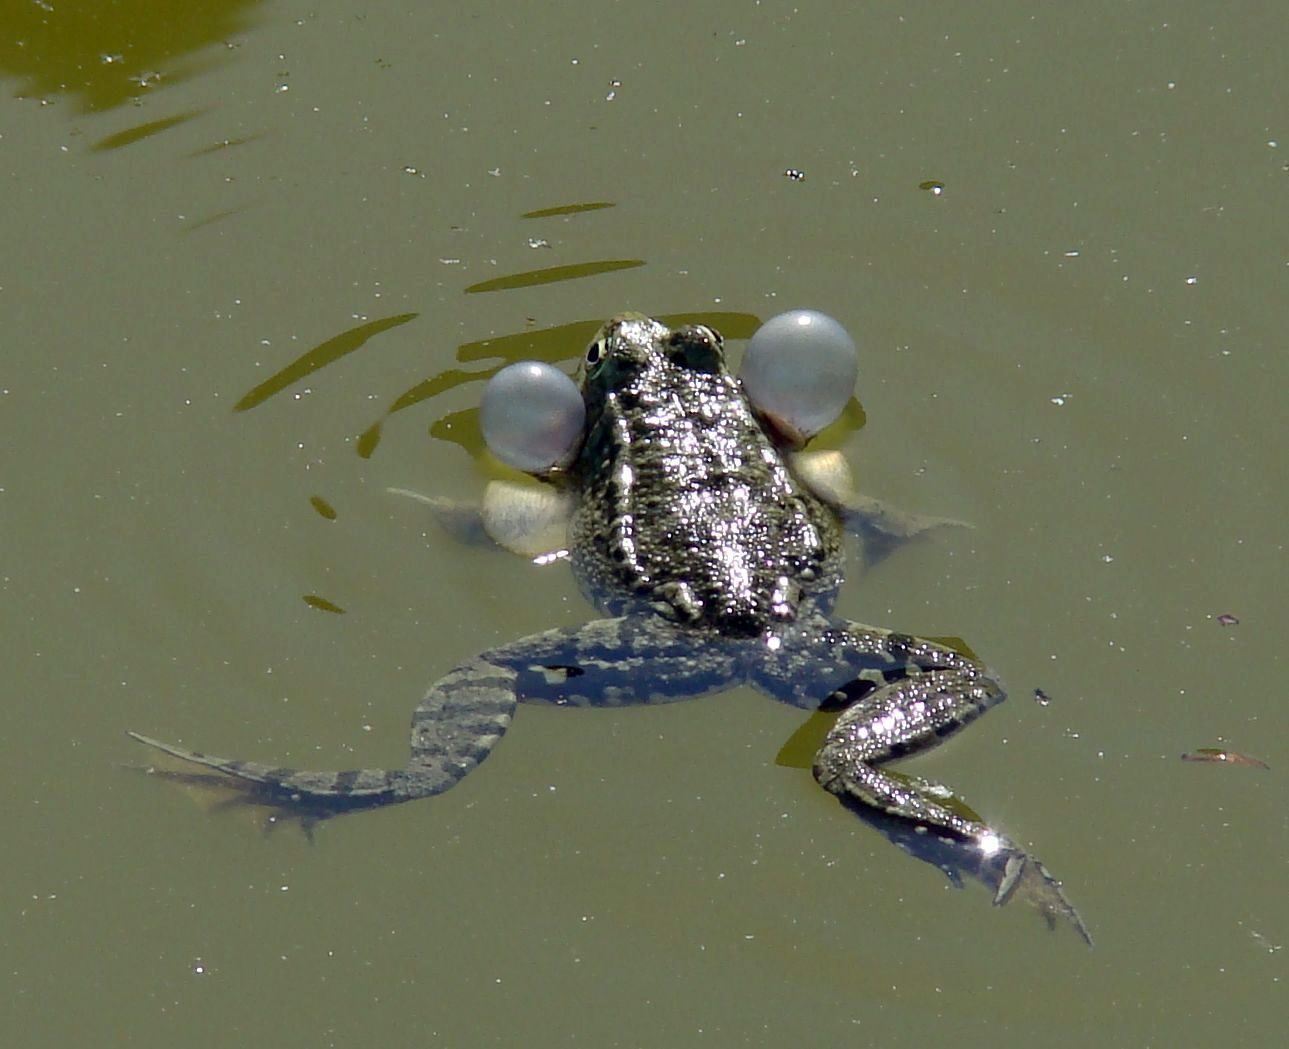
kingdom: Animalia
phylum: Chordata
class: Amphibia
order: Anura
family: Ranidae
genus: Pelophylax
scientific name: Pelophylax ridibundus
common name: Marsh frog
